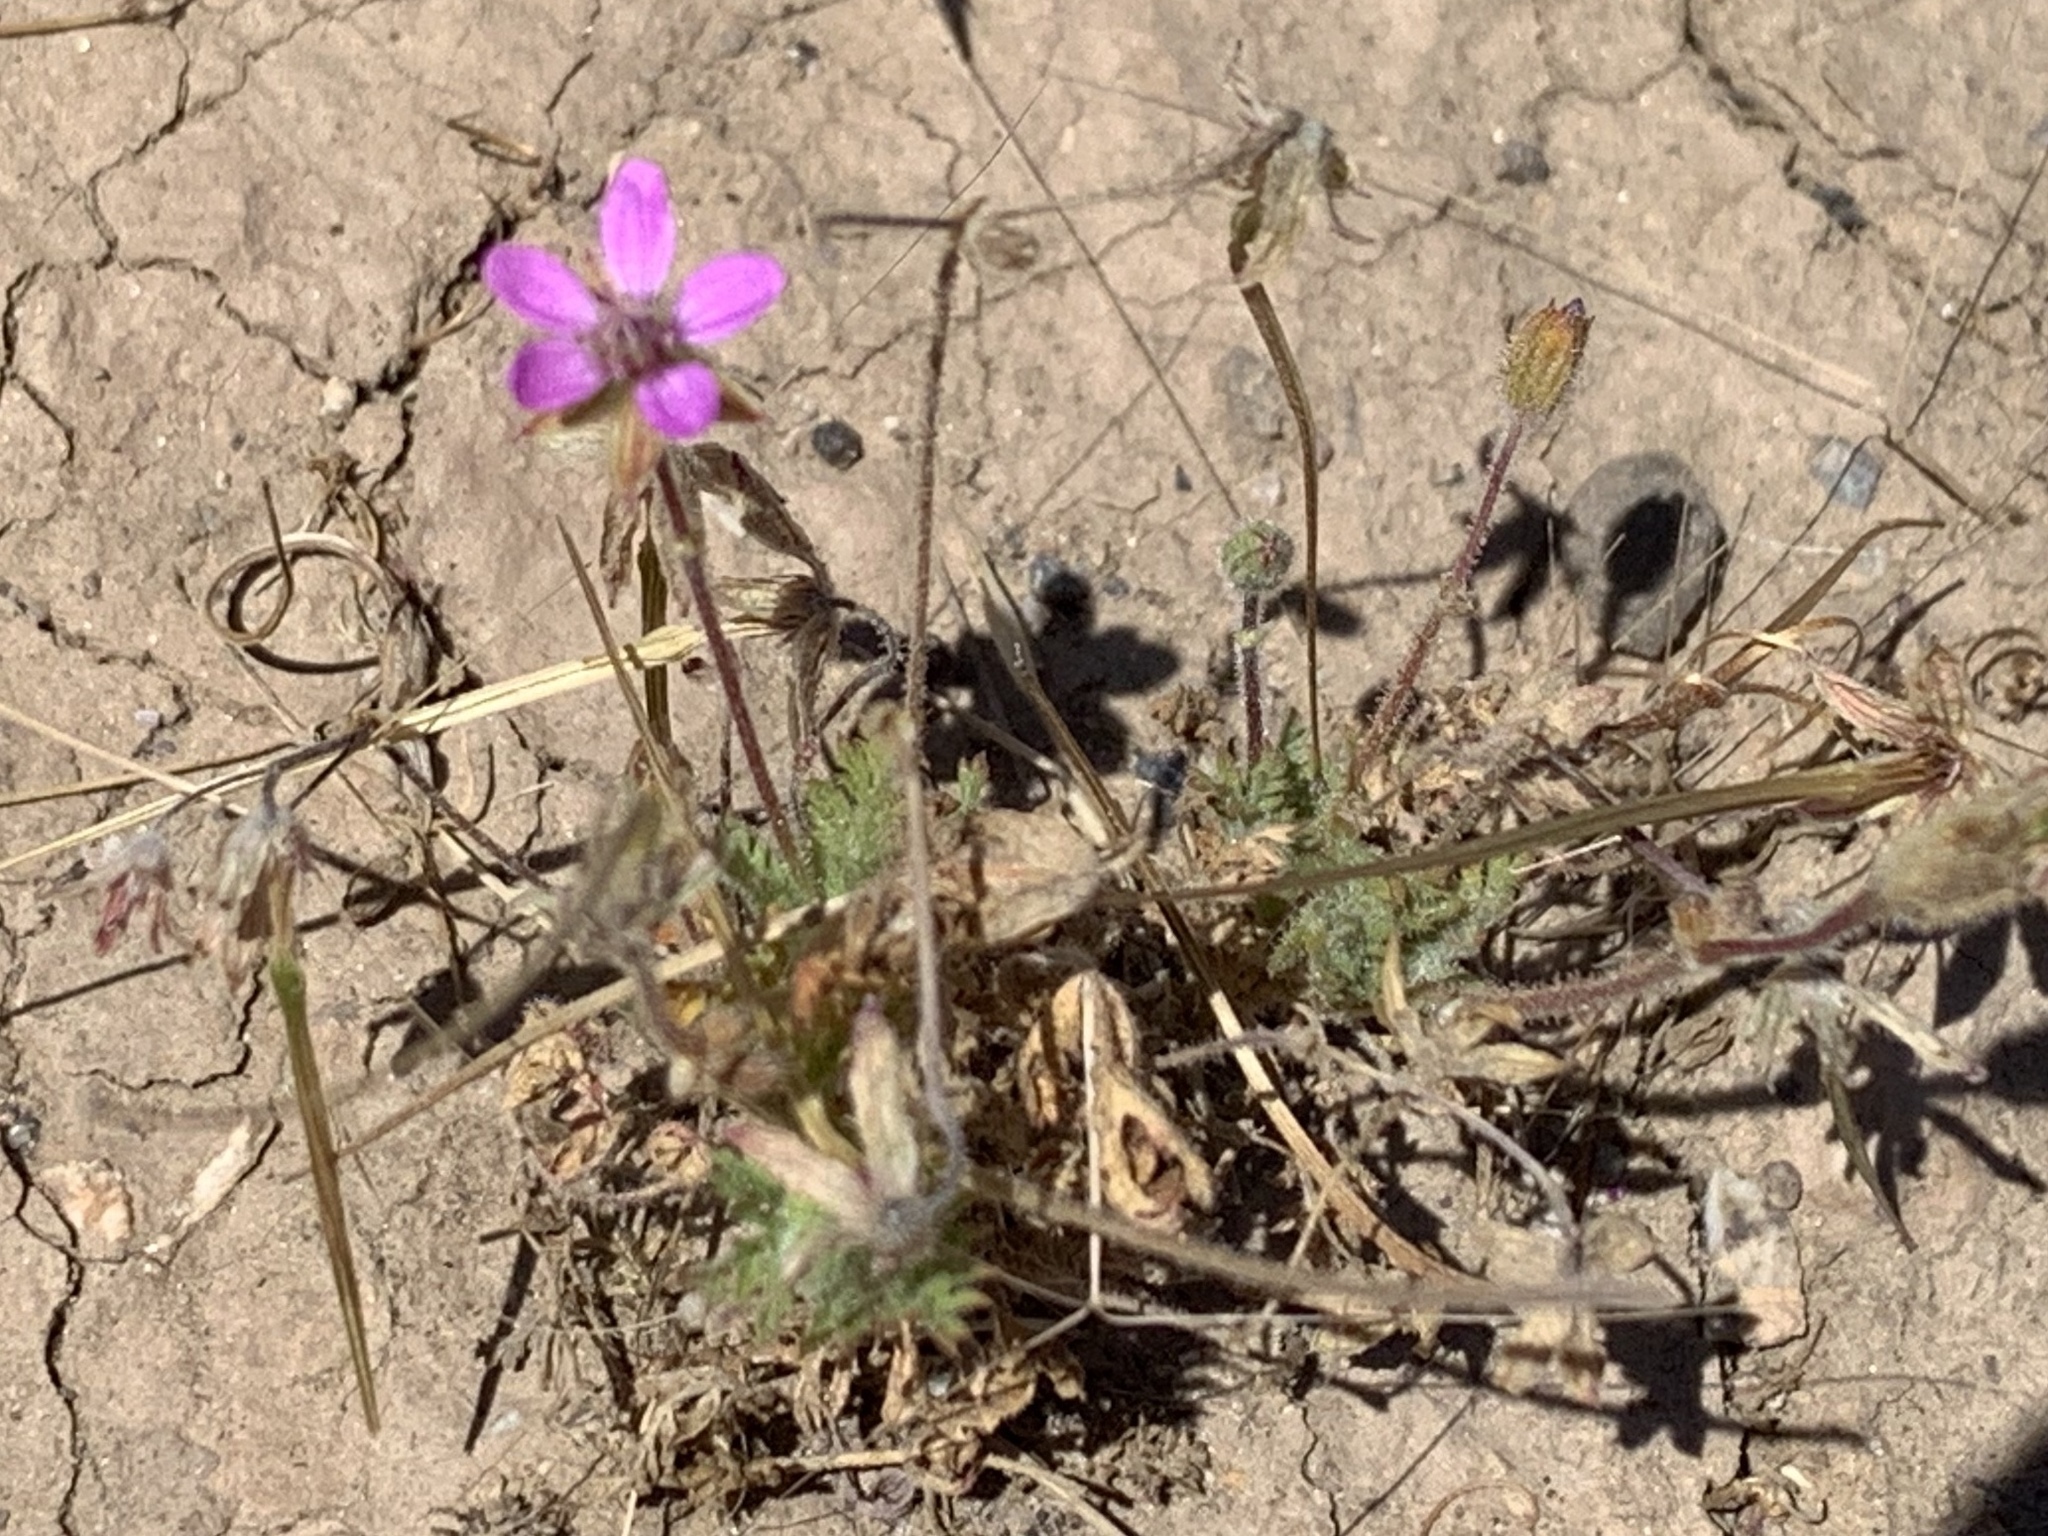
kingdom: Plantae
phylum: Tracheophyta
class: Magnoliopsida
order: Geraniales
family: Geraniaceae
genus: Erodium
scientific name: Erodium cicutarium
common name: Common stork's-bill
